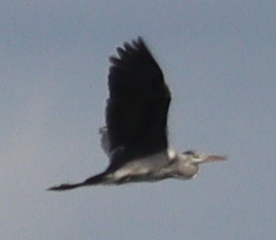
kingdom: Animalia
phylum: Chordata
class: Aves
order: Pelecaniformes
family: Ardeidae
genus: Ardea
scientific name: Ardea cinerea
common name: Grey heron
